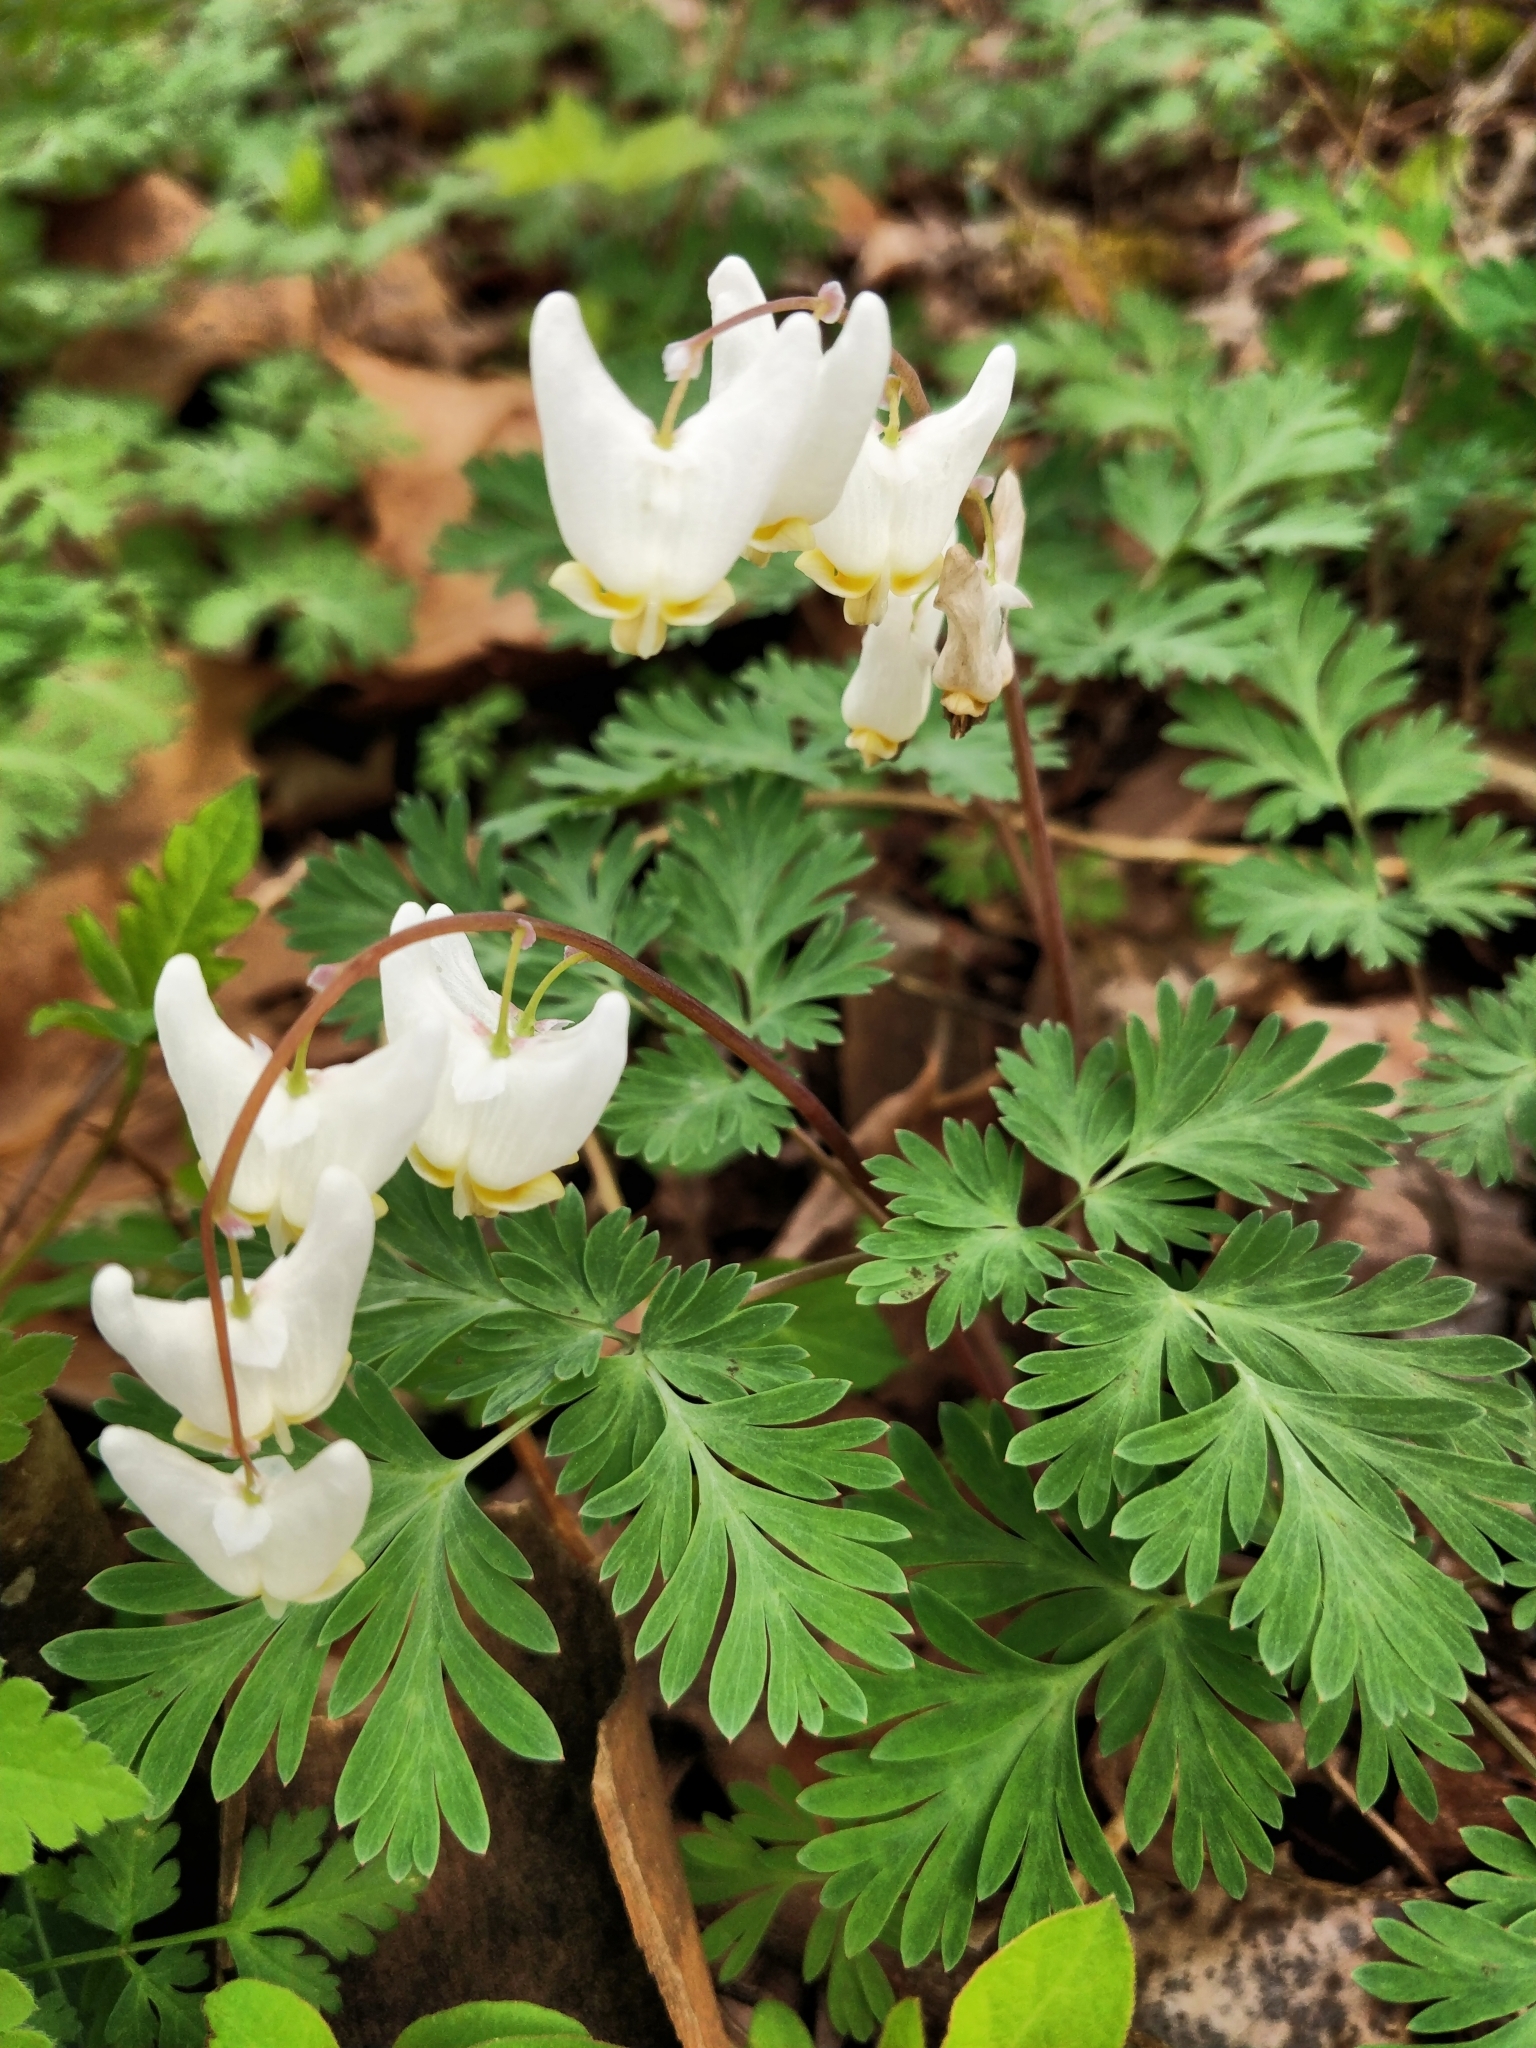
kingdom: Plantae
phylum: Tracheophyta
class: Magnoliopsida
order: Ranunculales
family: Papaveraceae
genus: Dicentra
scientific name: Dicentra cucullaria
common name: Dutchman's breeches
